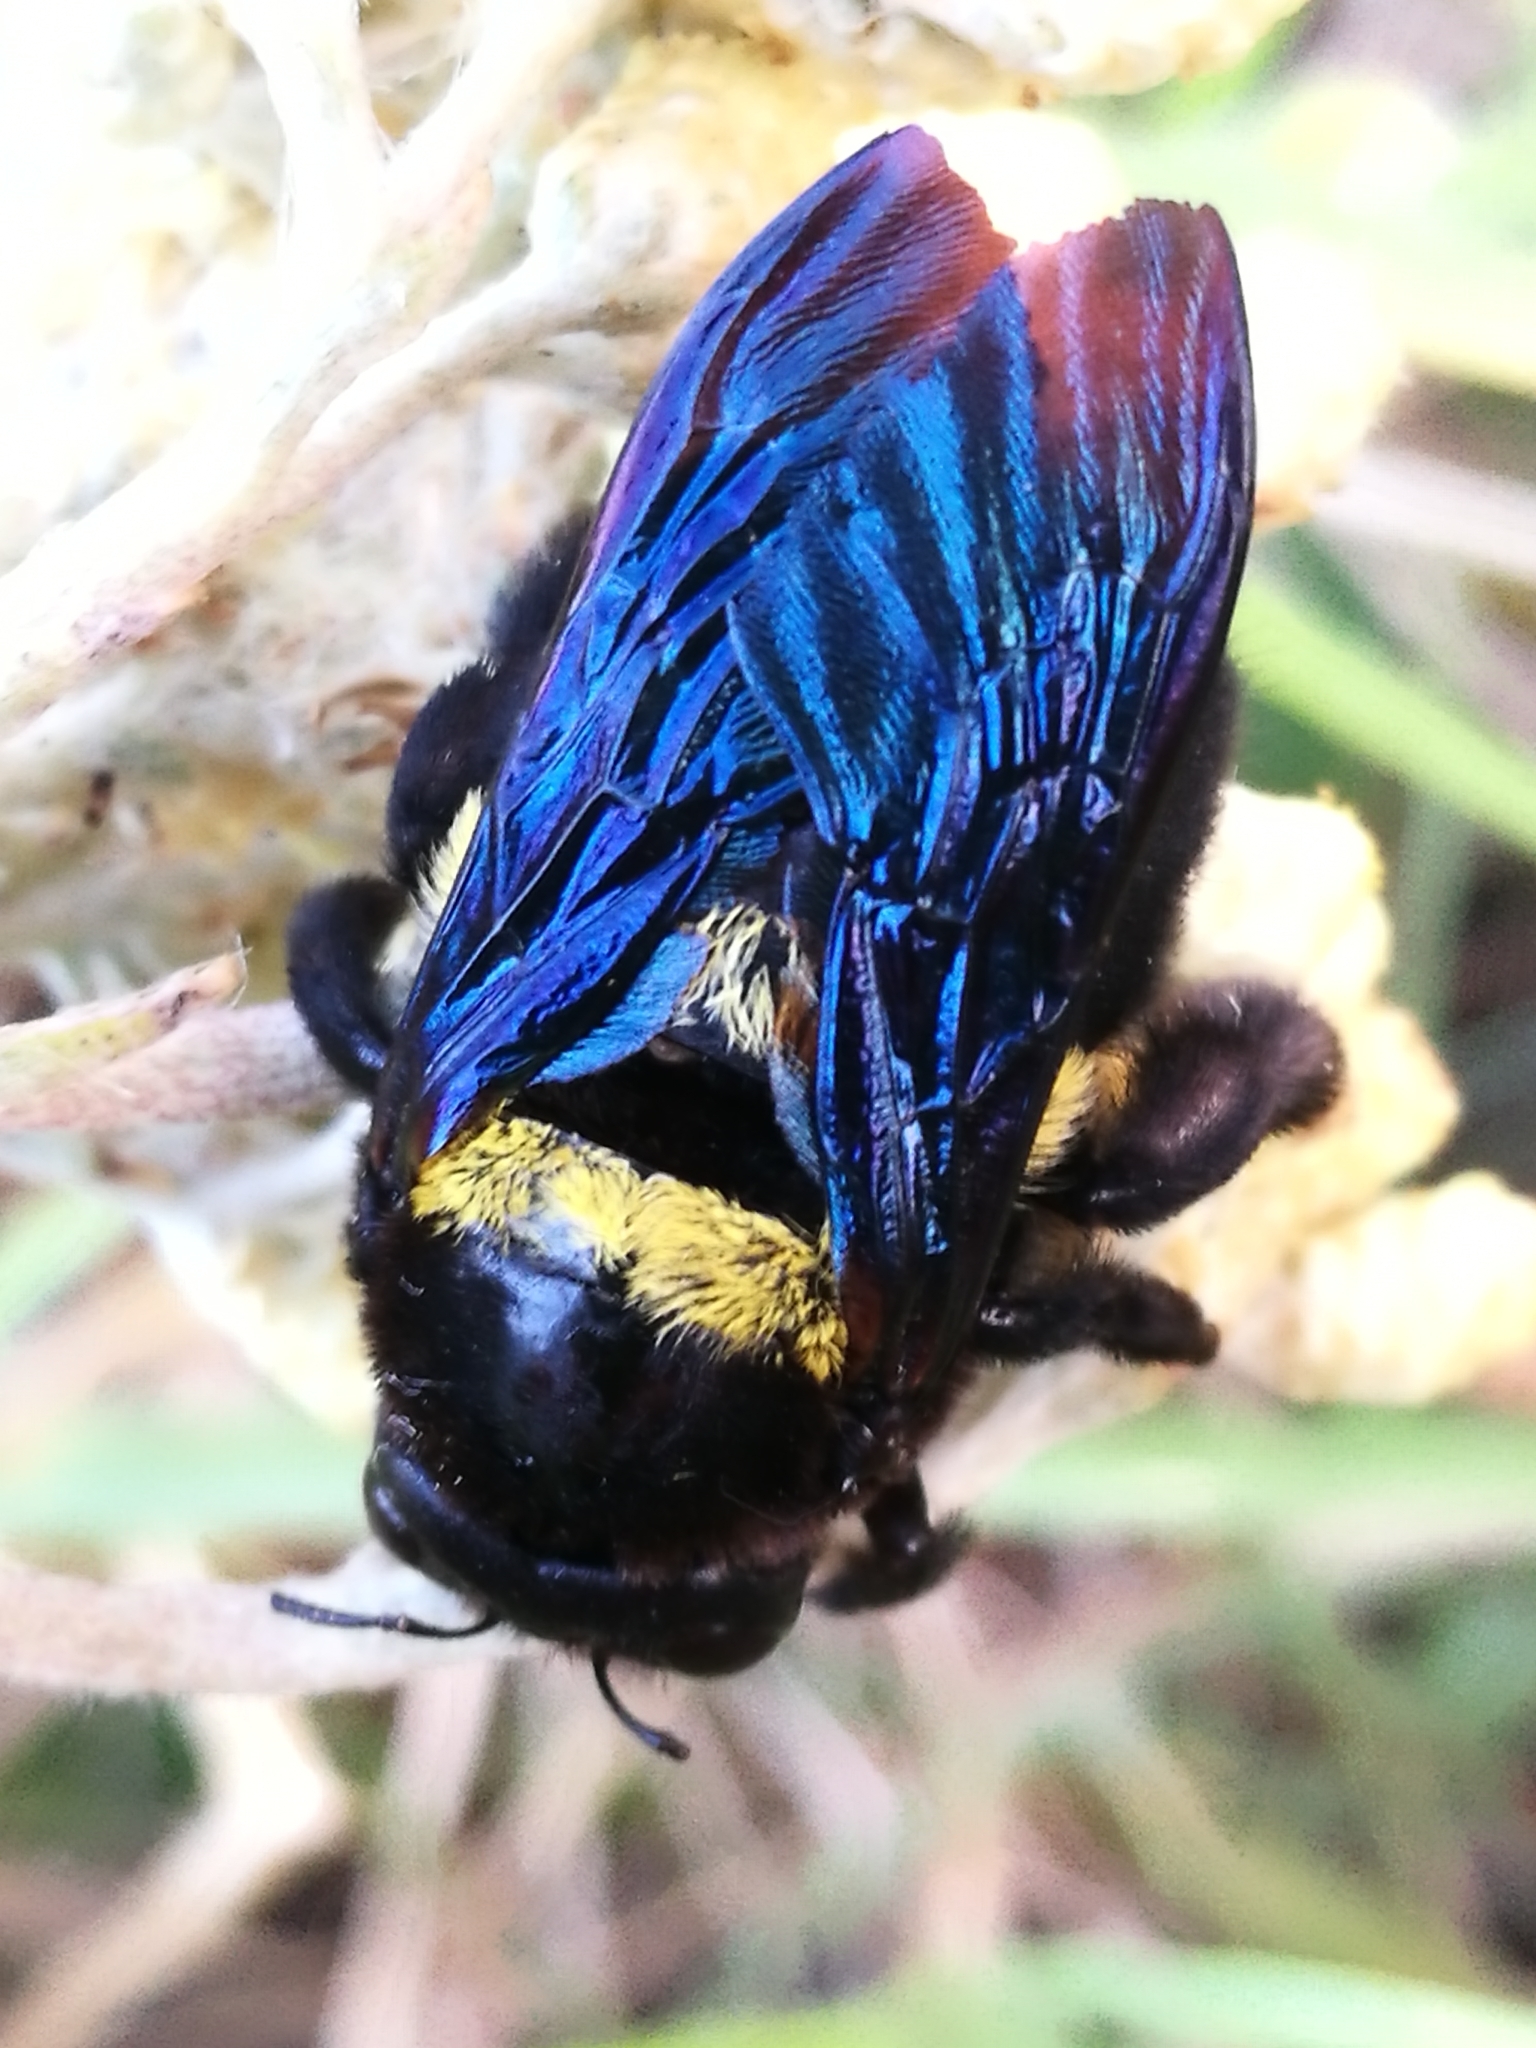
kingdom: Animalia
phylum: Arthropoda
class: Insecta
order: Hymenoptera
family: Apidae
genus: Xylocopa
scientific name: Xylocopa caffra
